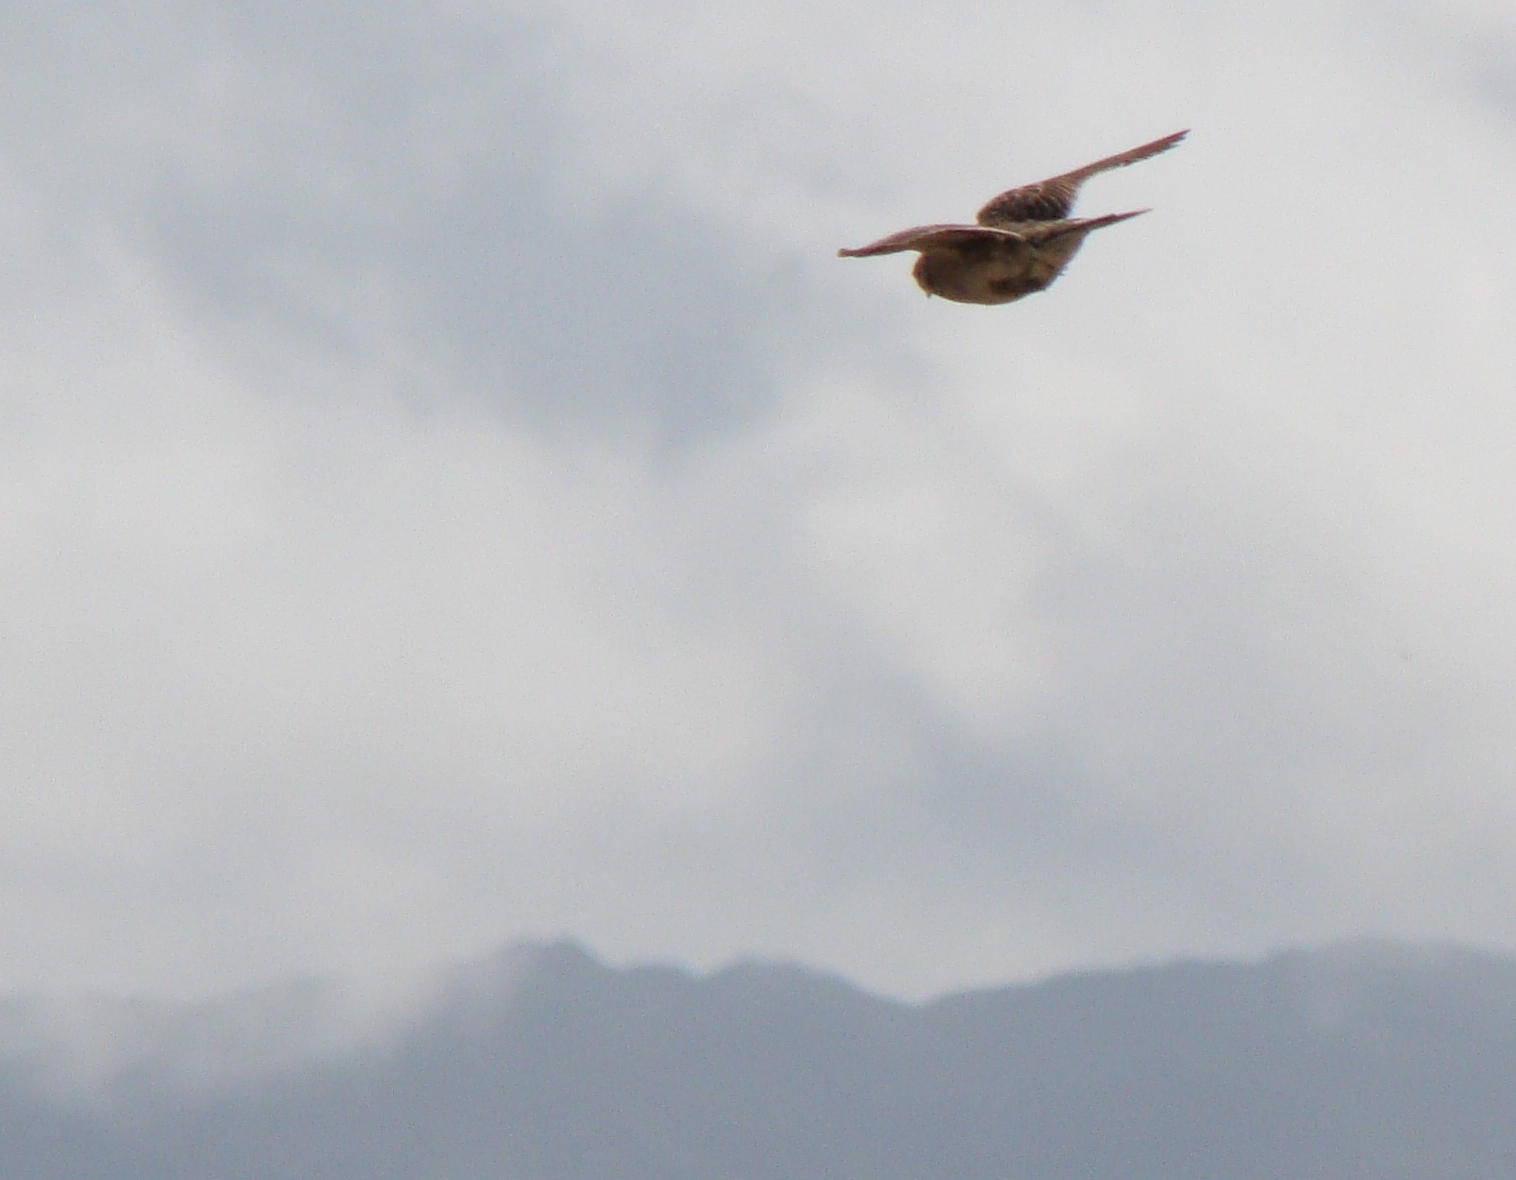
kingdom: Animalia
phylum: Chordata
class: Aves
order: Passeriformes
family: Alaudidae
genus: Alauda
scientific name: Alauda arvensis
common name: Eurasian skylark
